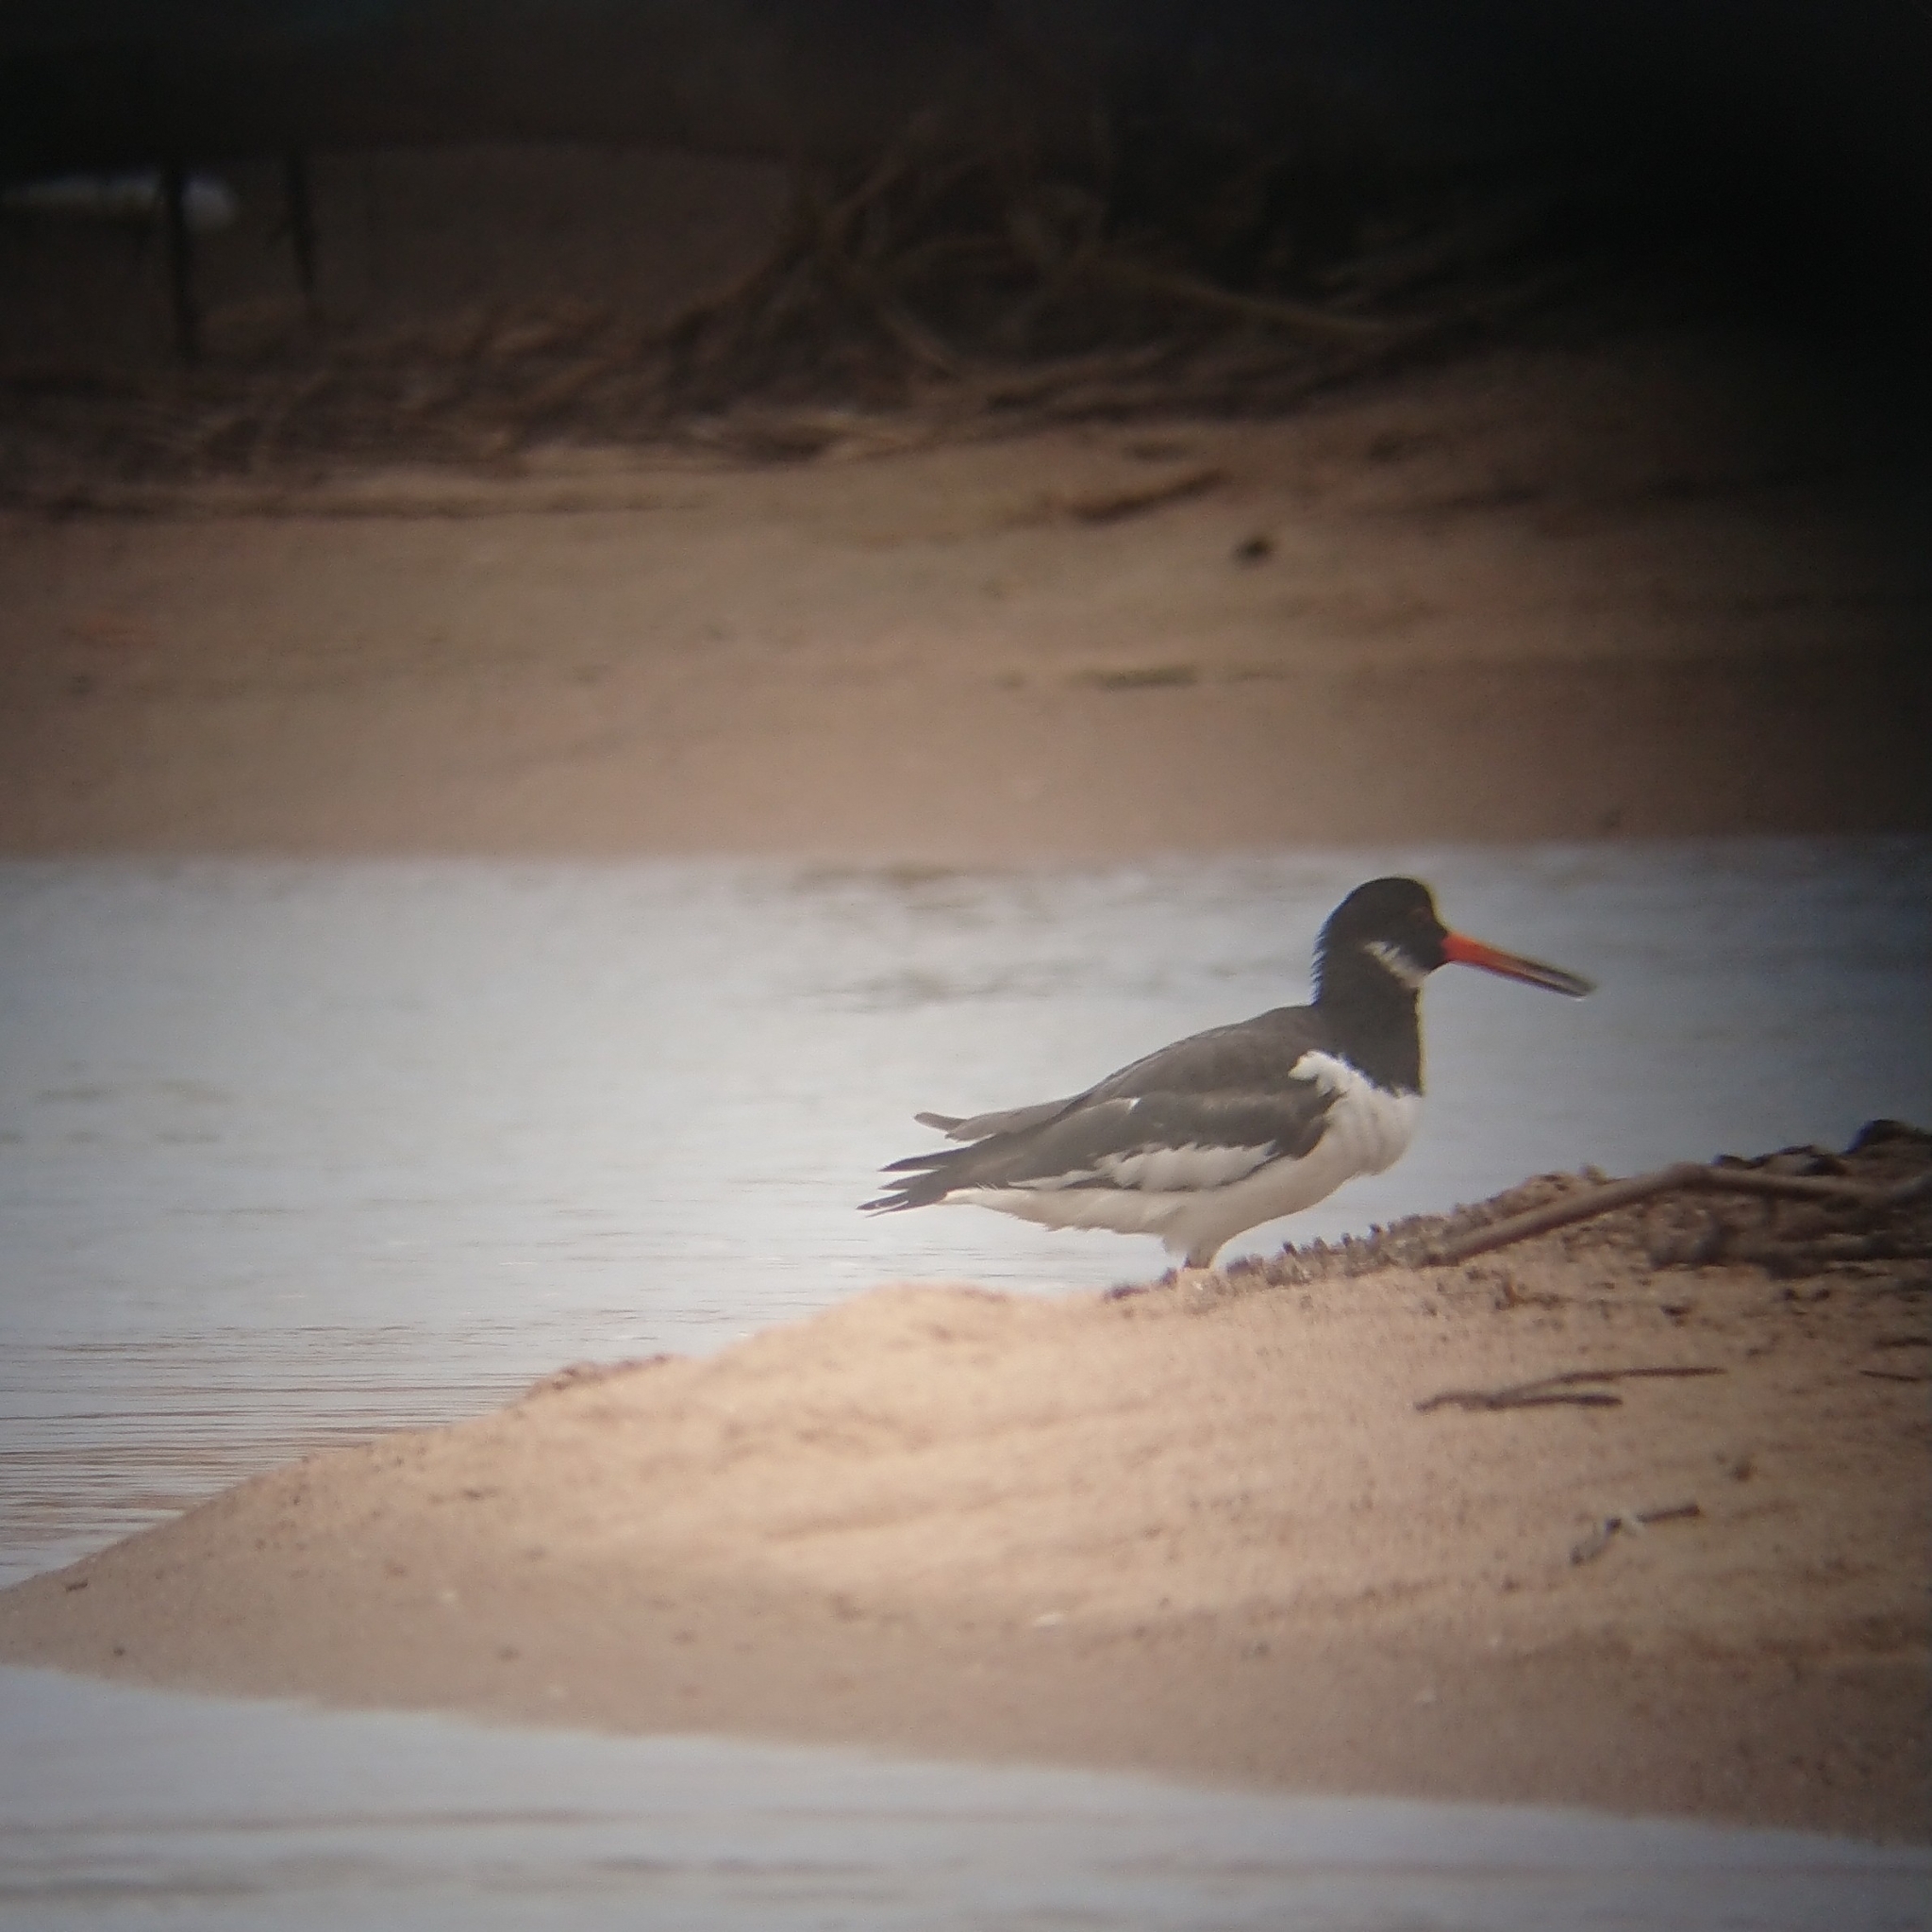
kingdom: Animalia
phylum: Chordata
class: Aves
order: Charadriiformes
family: Haematopodidae
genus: Haematopus
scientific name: Haematopus ostralegus
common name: Eurasian oystercatcher
